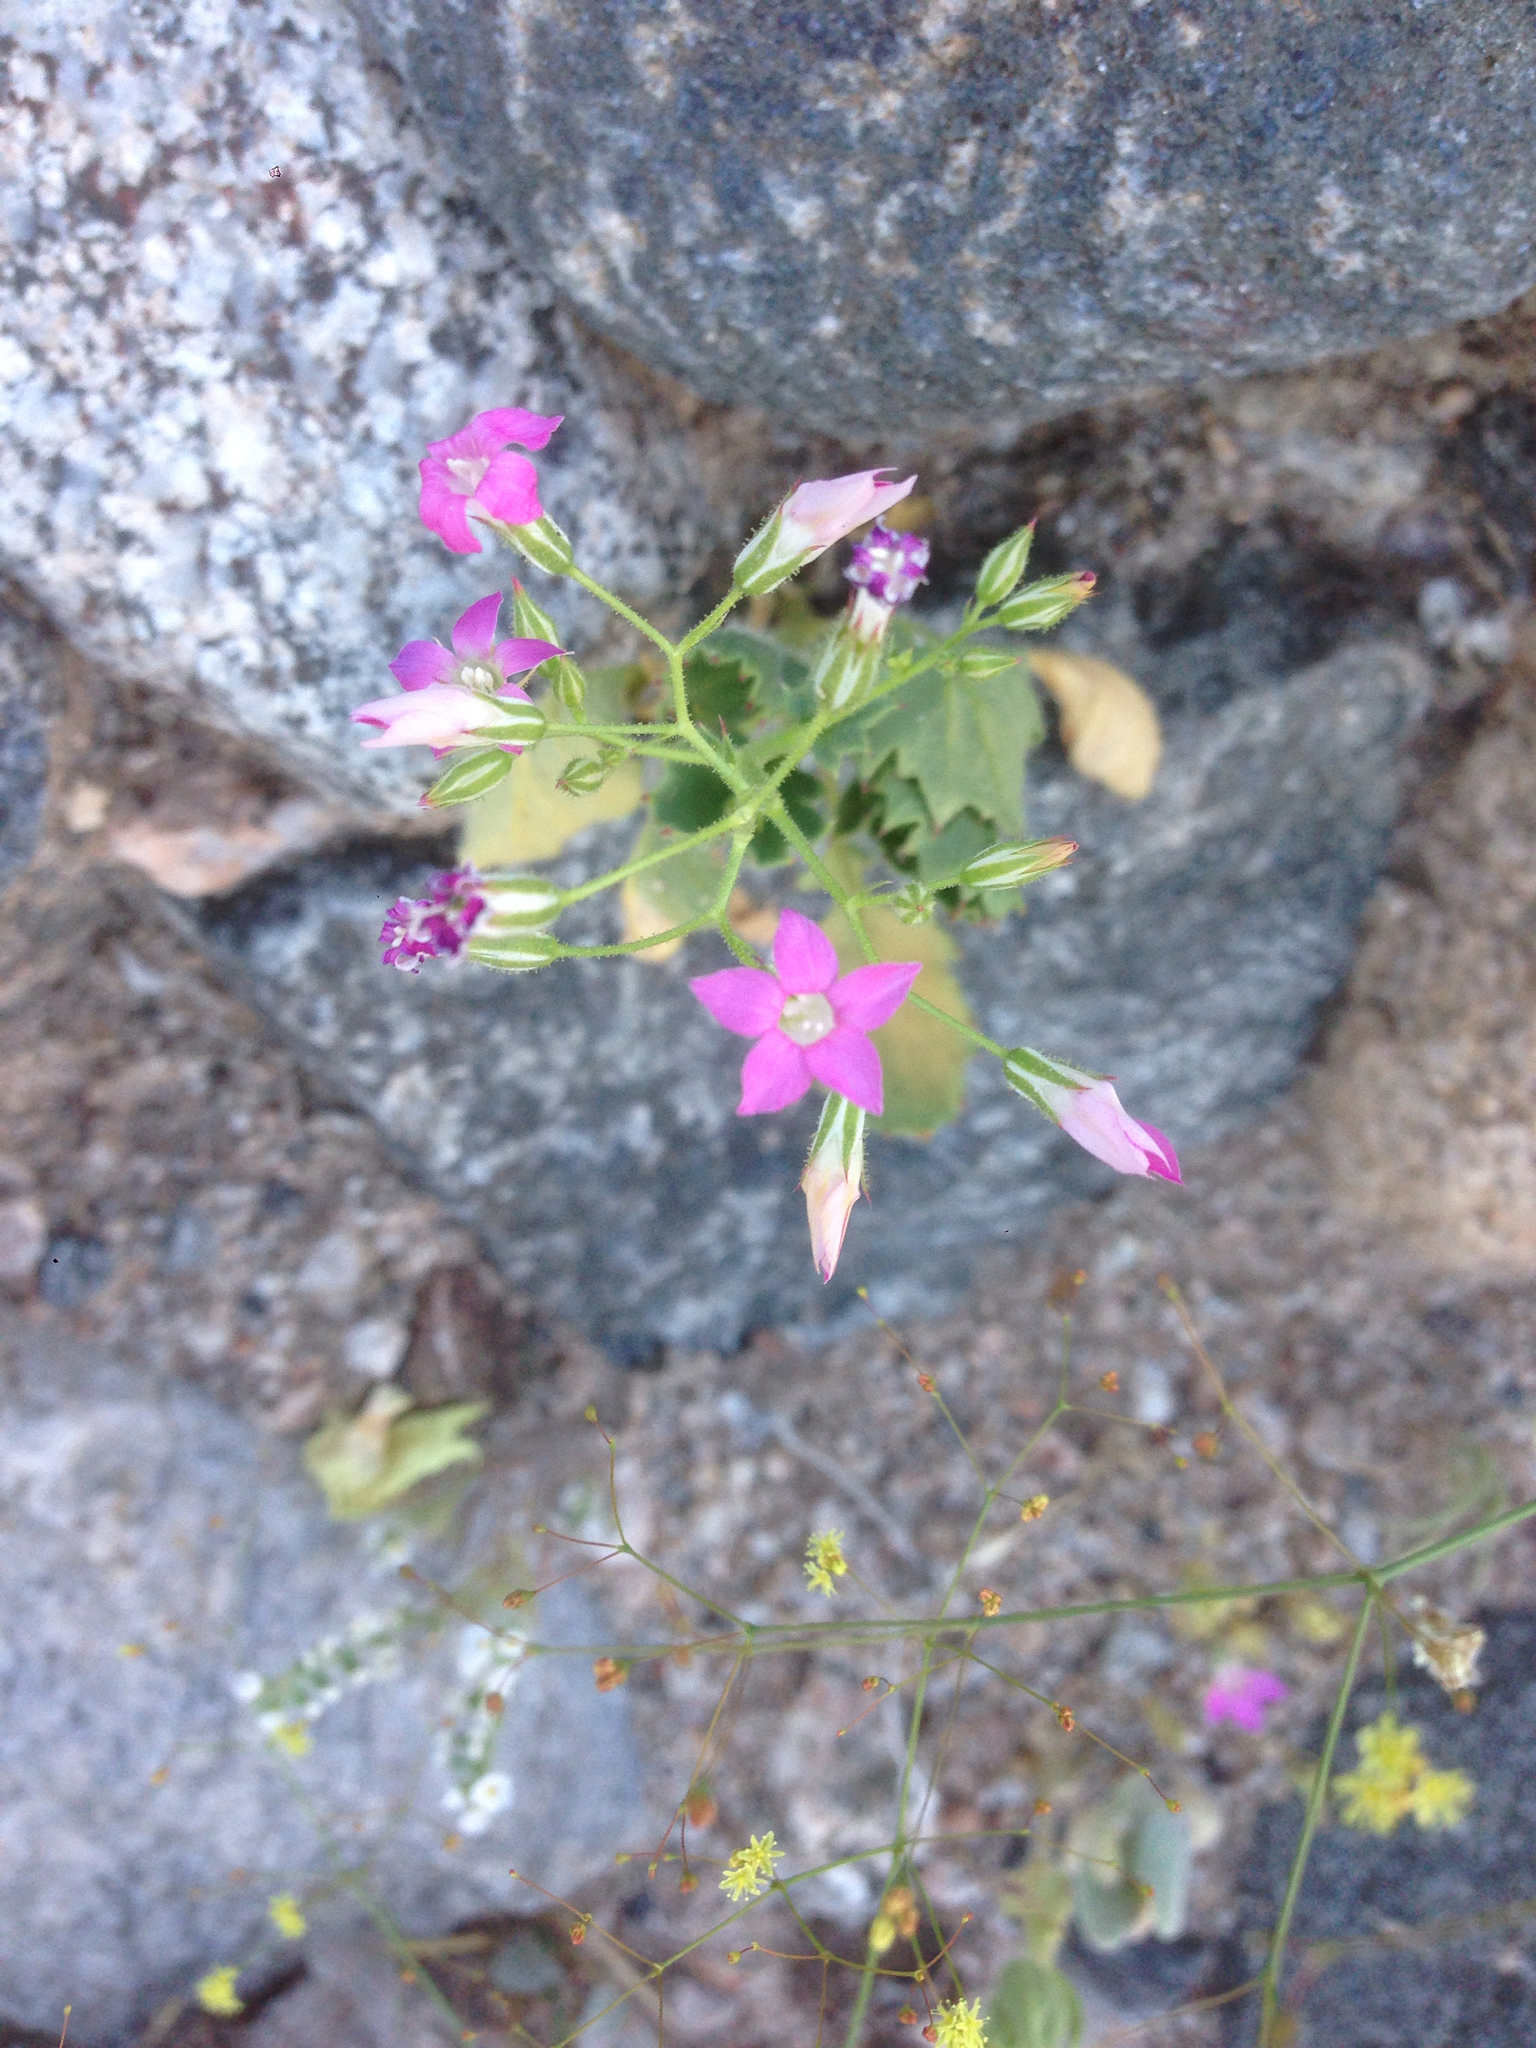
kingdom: Plantae
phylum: Tracheophyta
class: Magnoliopsida
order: Ericales
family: Polemoniaceae
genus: Aliciella
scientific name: Aliciella latifolia
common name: Broad-leaf gilia
